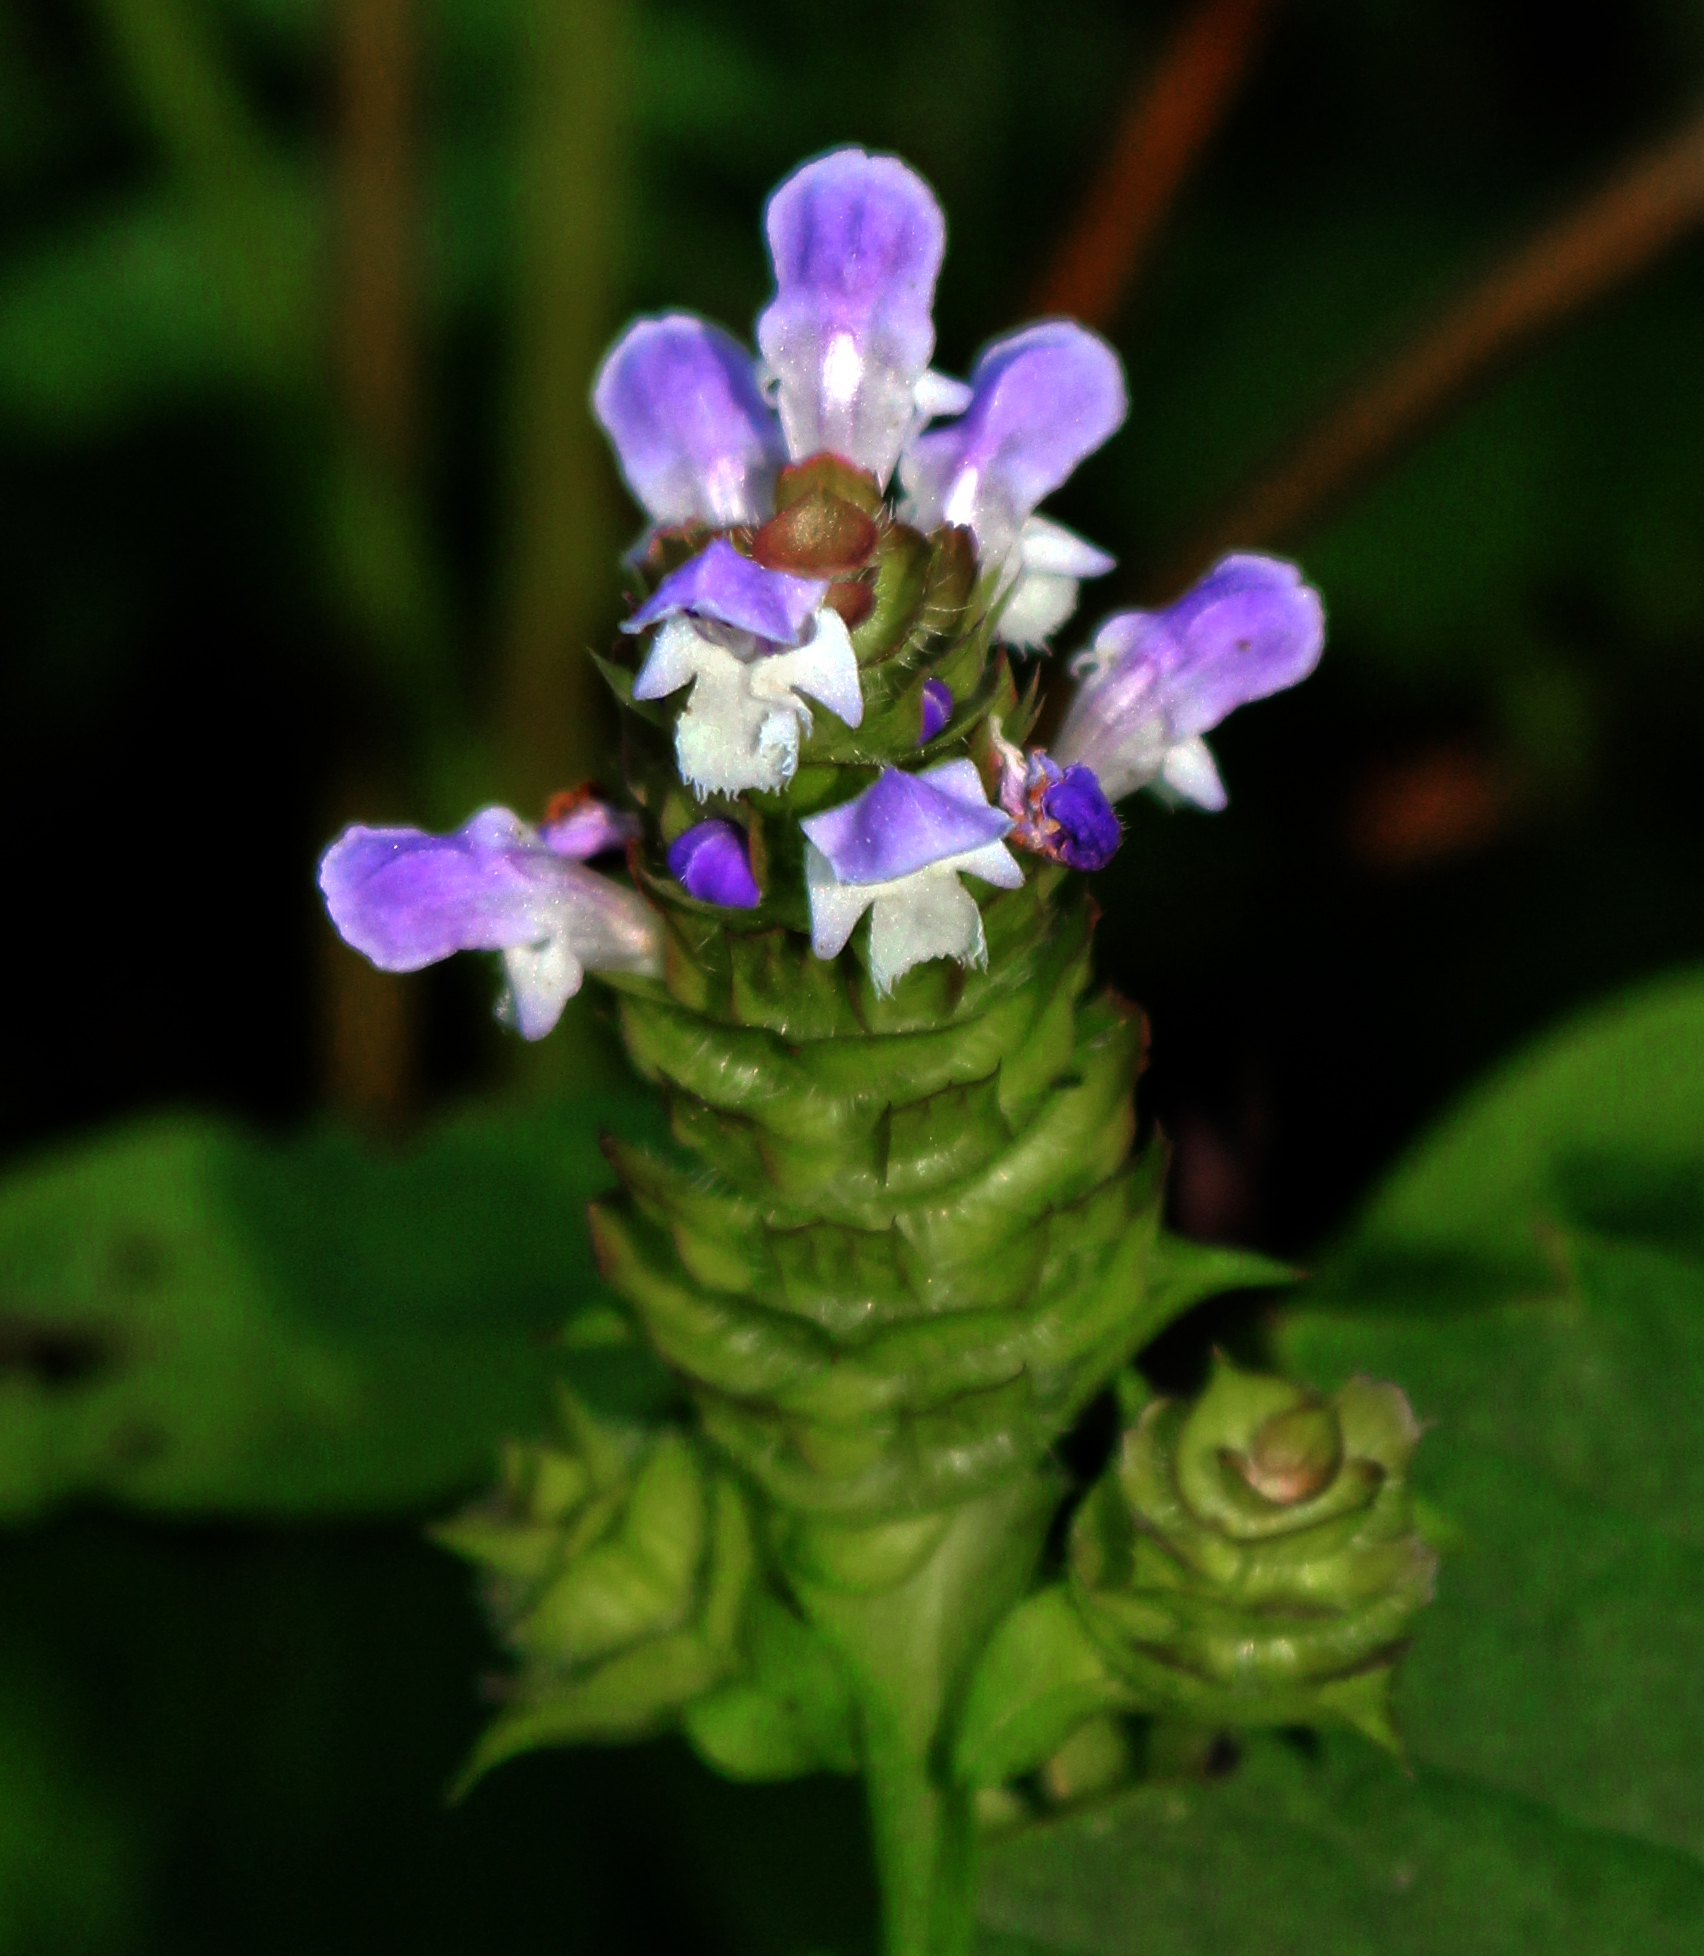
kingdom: Plantae
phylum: Tracheophyta
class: Magnoliopsida
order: Lamiales
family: Lamiaceae
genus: Prunella
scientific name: Prunella vulgaris
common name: Heal-all
